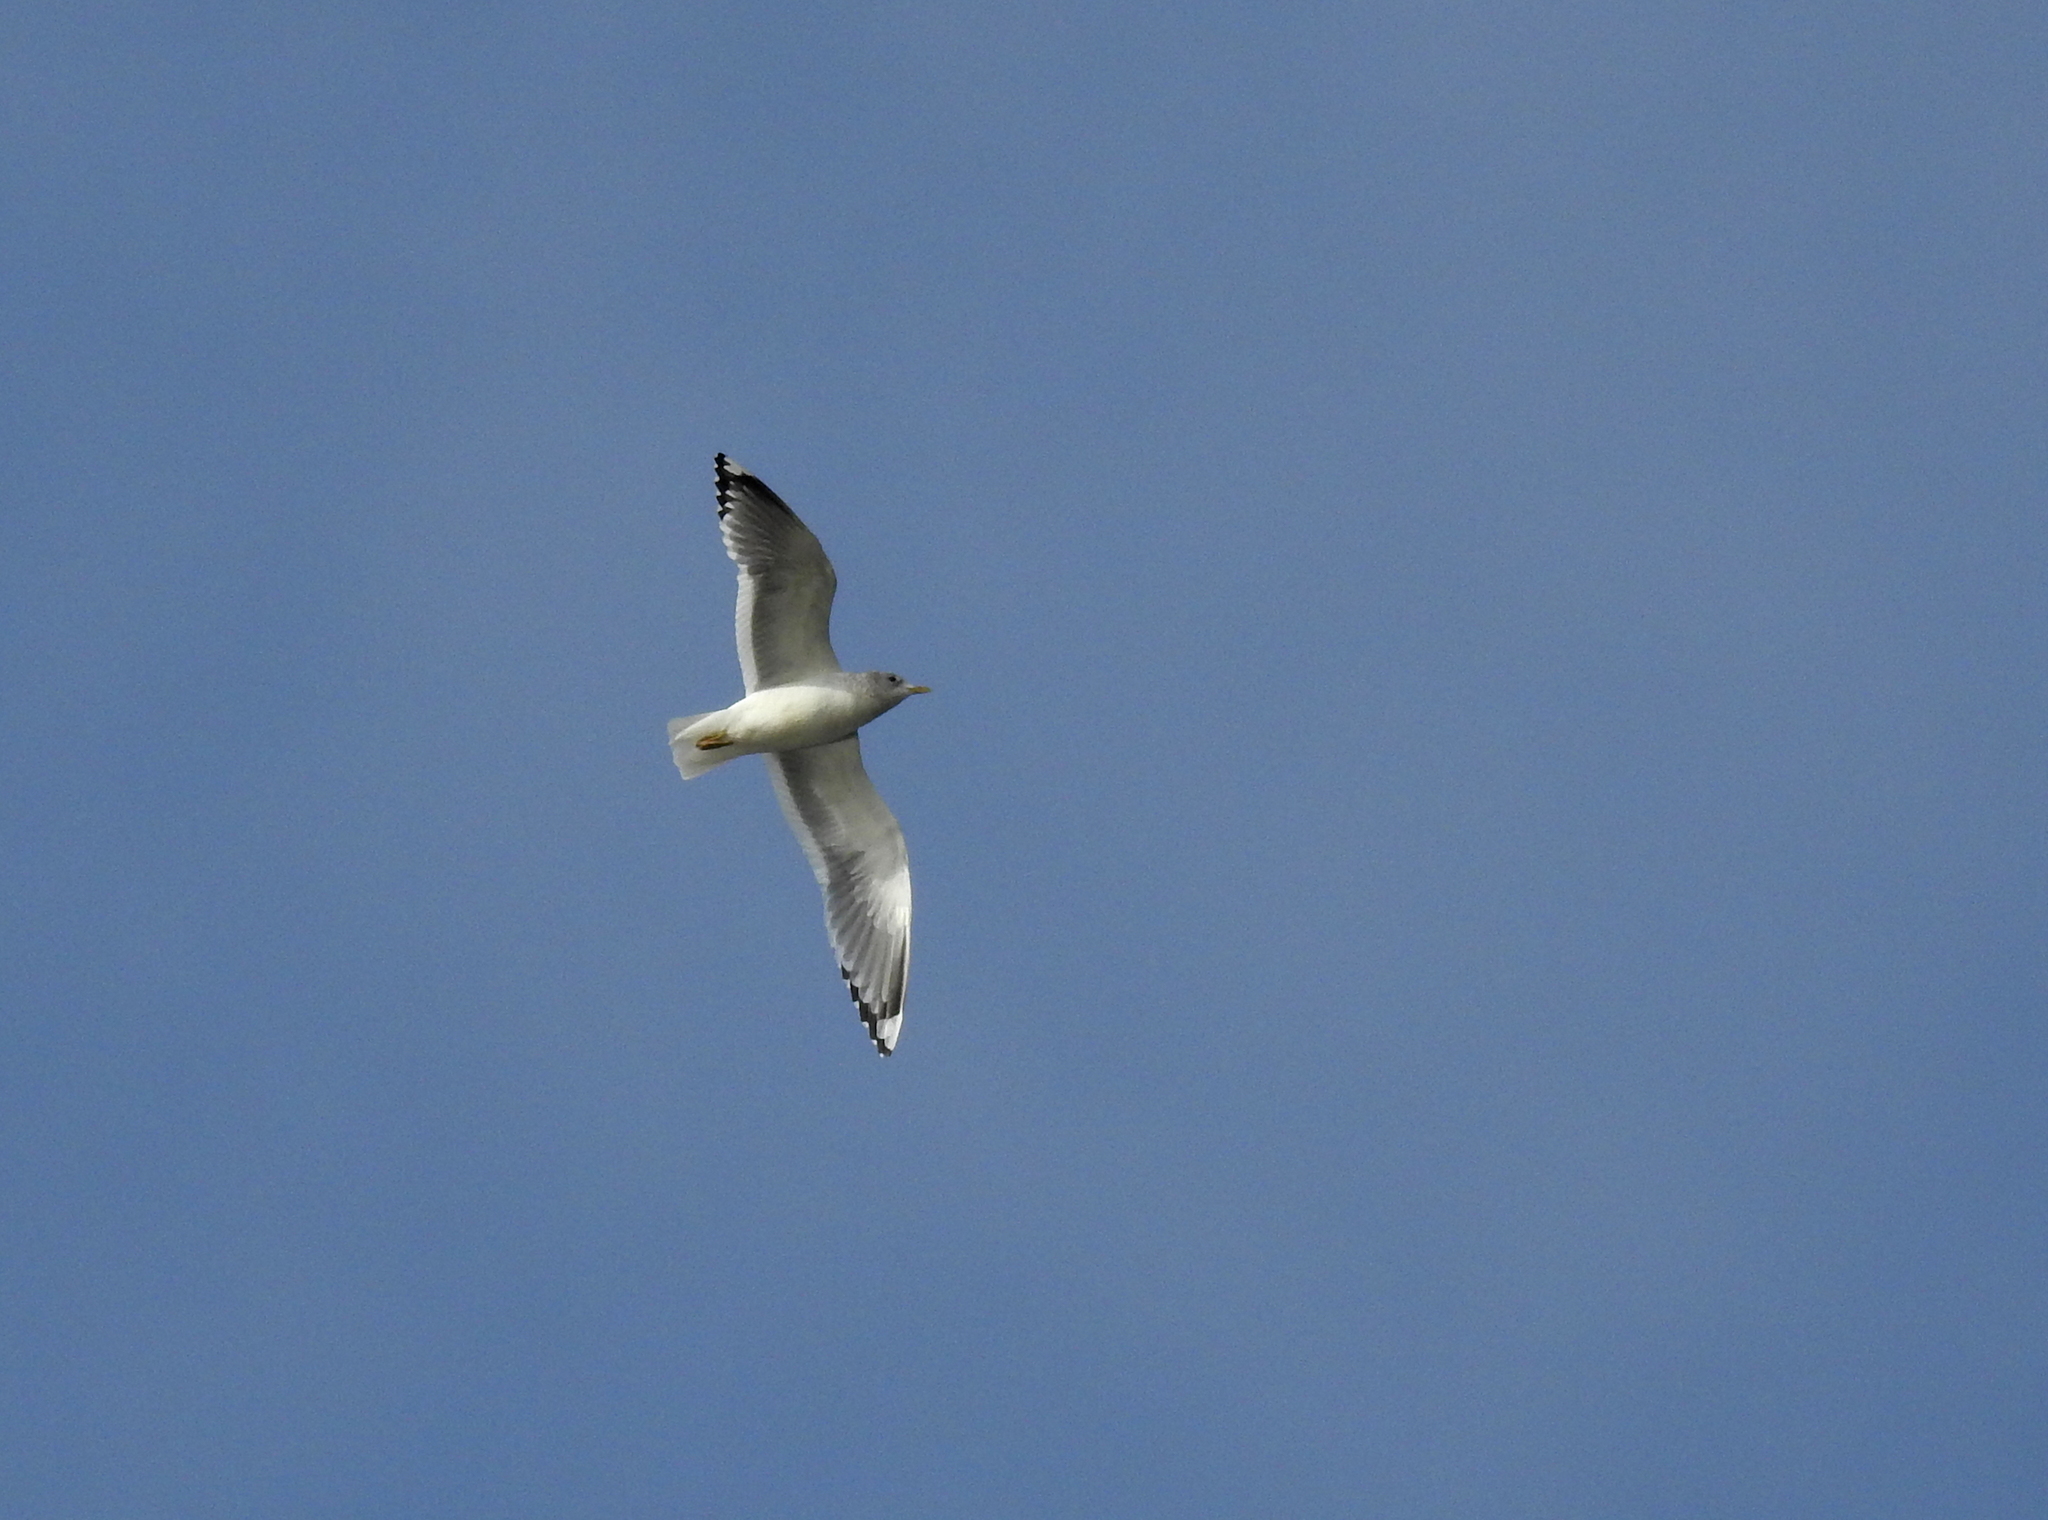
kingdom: Animalia
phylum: Chordata
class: Aves
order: Charadriiformes
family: Laridae
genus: Larus
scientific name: Larus brachyrhynchus
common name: Short-billed gull
